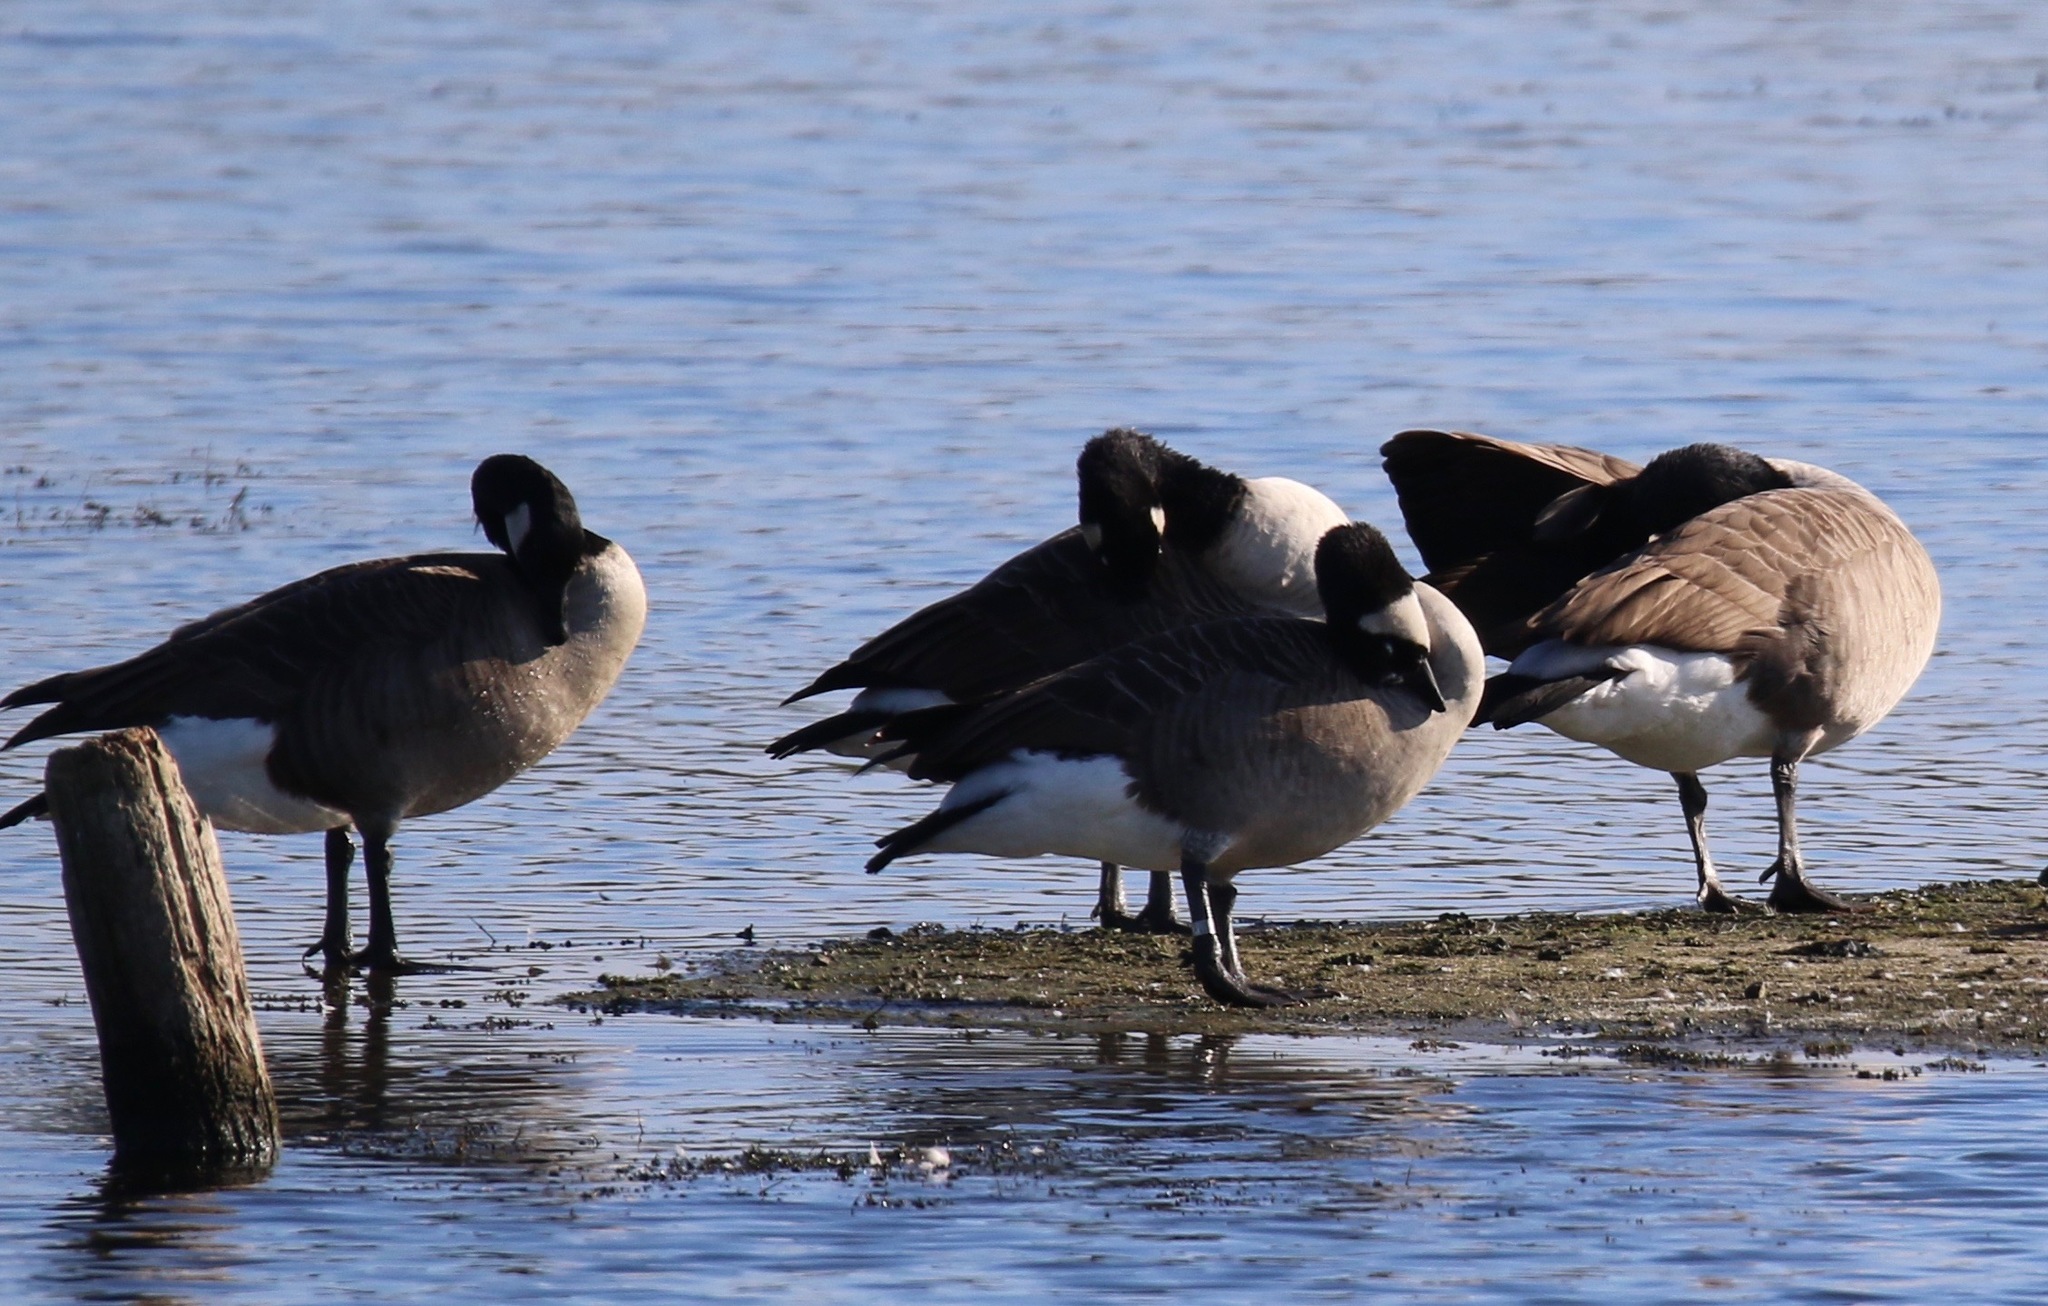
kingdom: Animalia
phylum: Chordata
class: Aves
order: Anseriformes
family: Anatidae
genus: Branta
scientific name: Branta canadensis
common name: Canada goose
